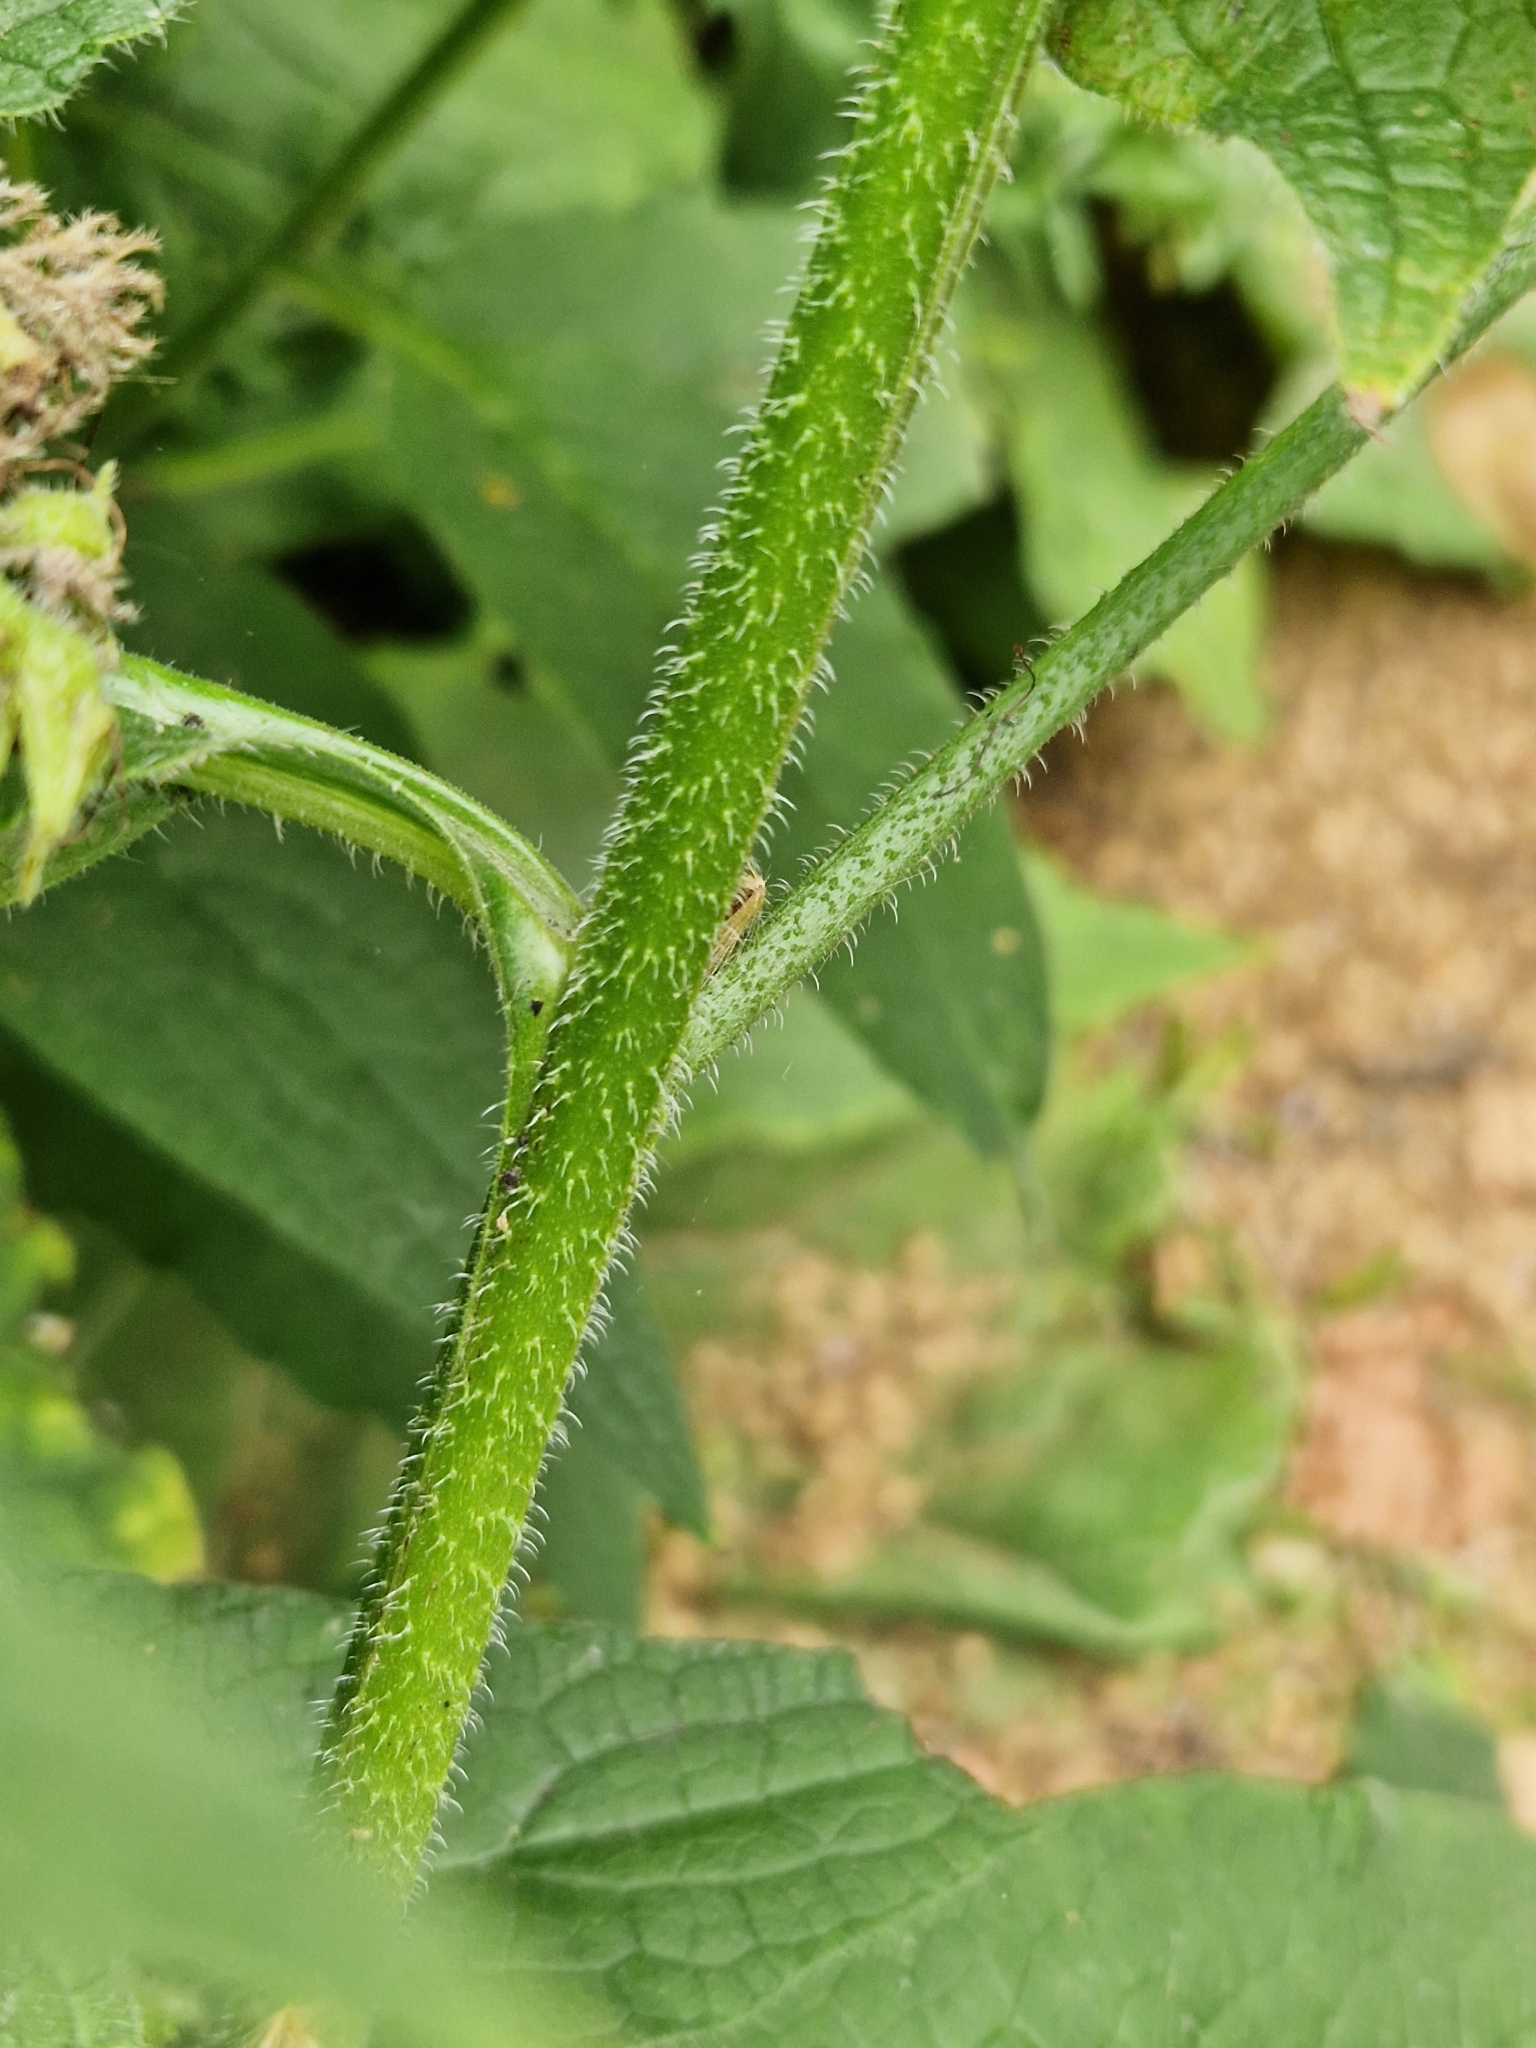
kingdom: Plantae
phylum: Tracheophyta
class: Magnoliopsida
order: Boraginales
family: Boraginaceae
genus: Symphytum
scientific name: Symphytum uplandicum
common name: Russian comfrey
